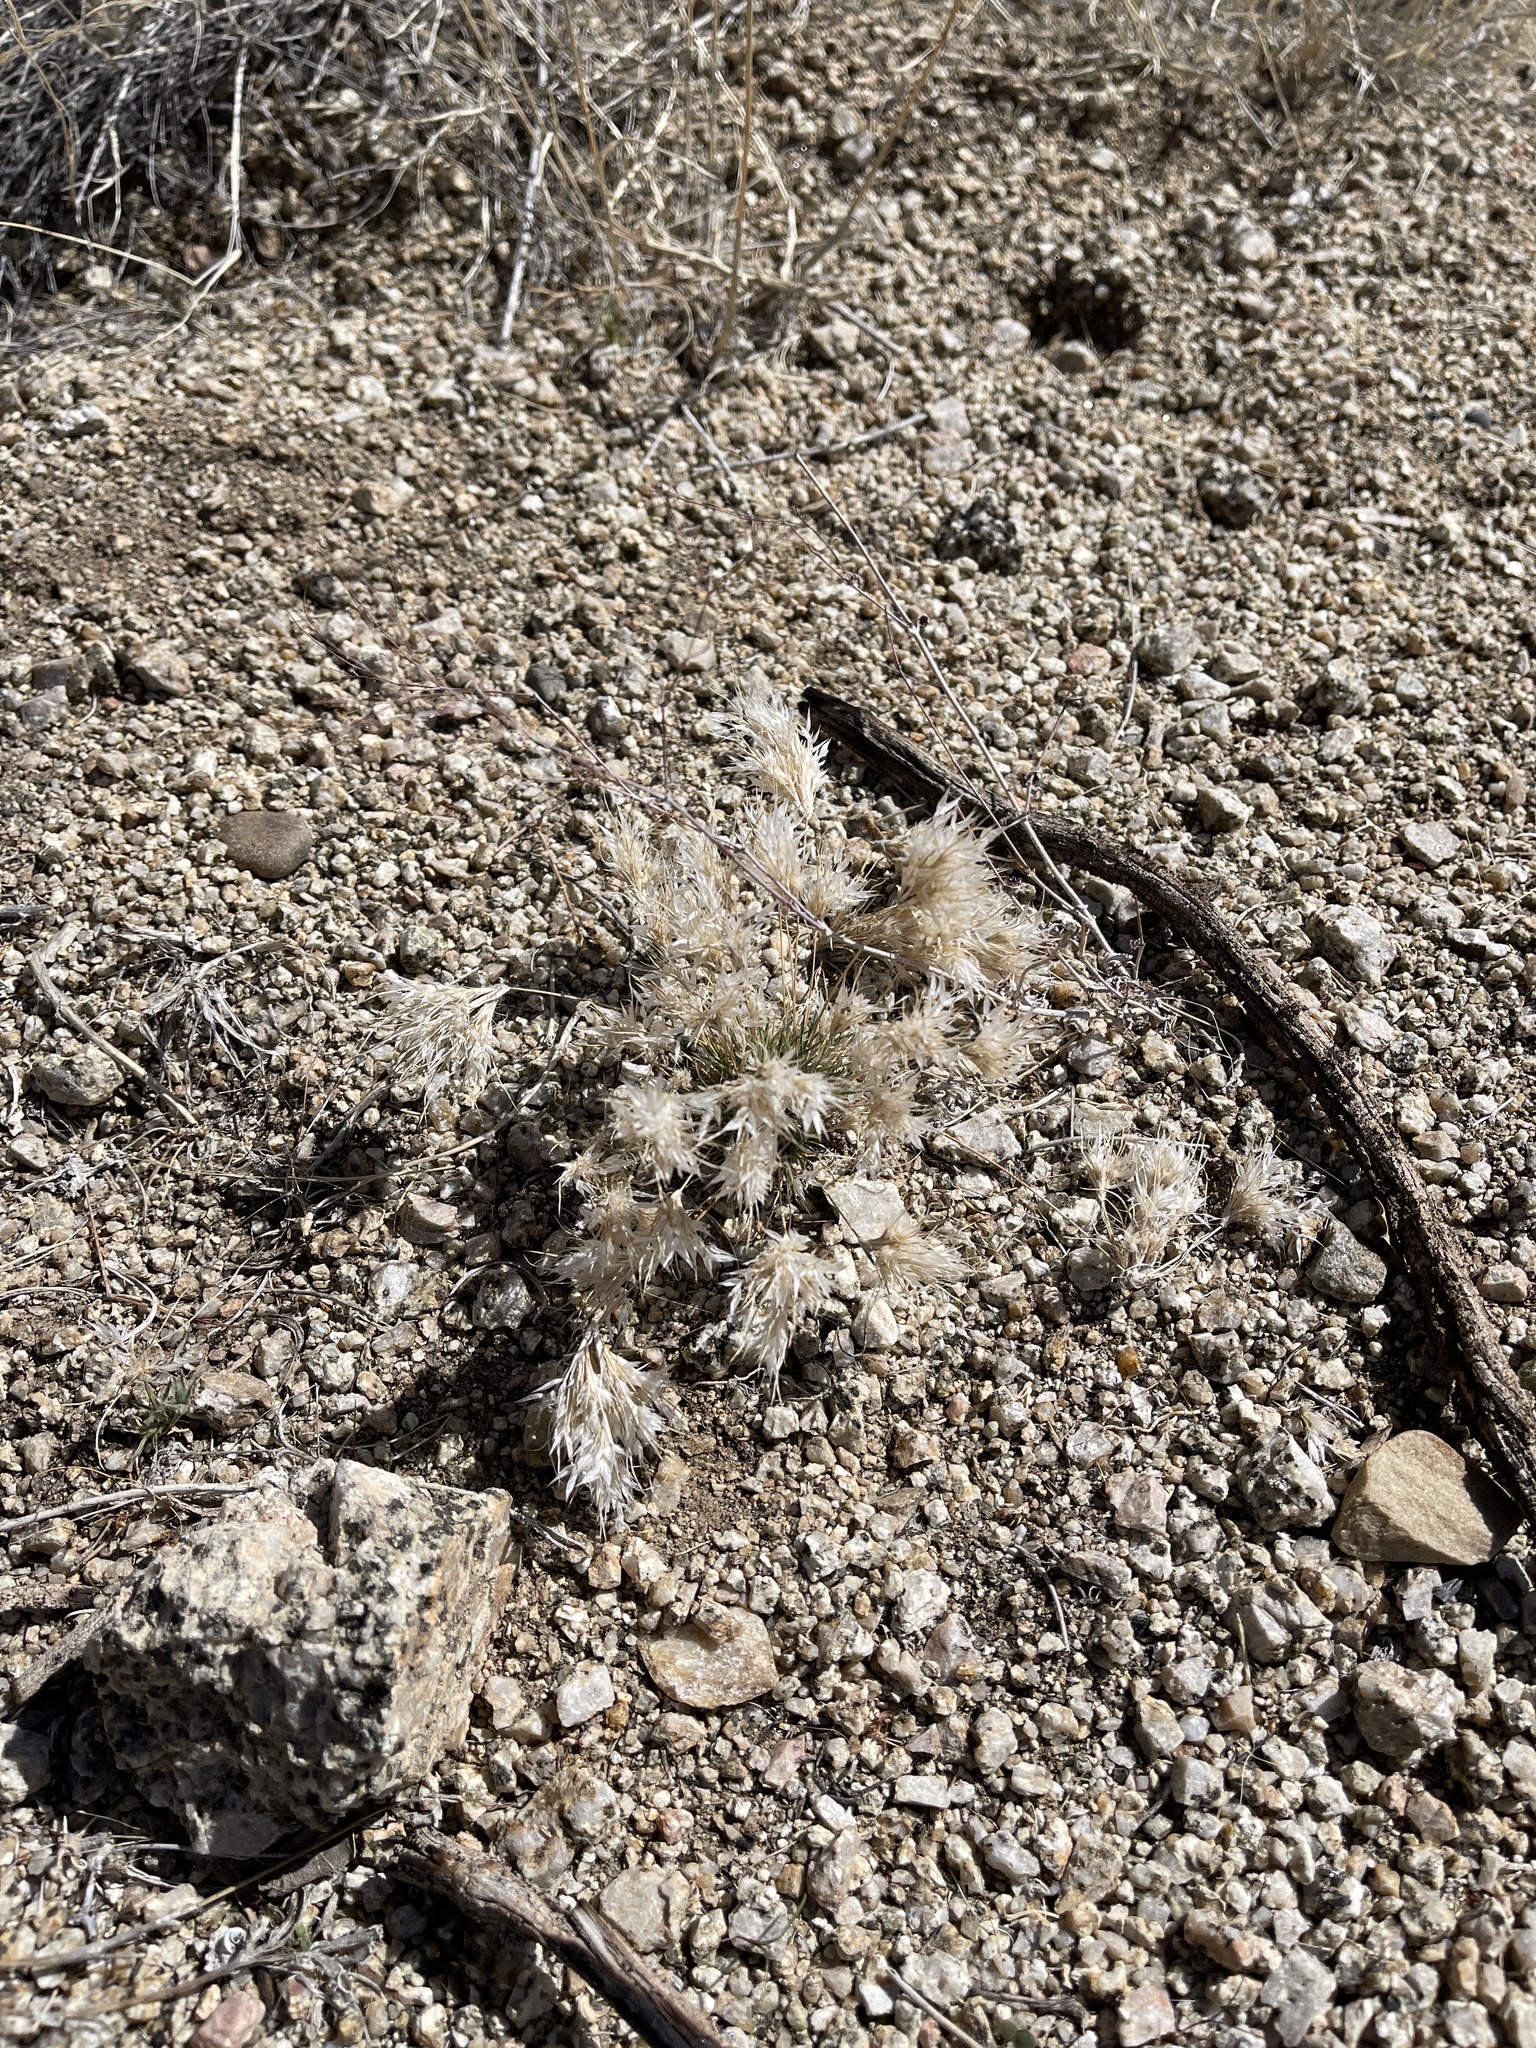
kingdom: Plantae
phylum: Tracheophyta
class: Liliopsida
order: Poales
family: Poaceae
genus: Dasyochloa
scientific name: Dasyochloa pulchella
